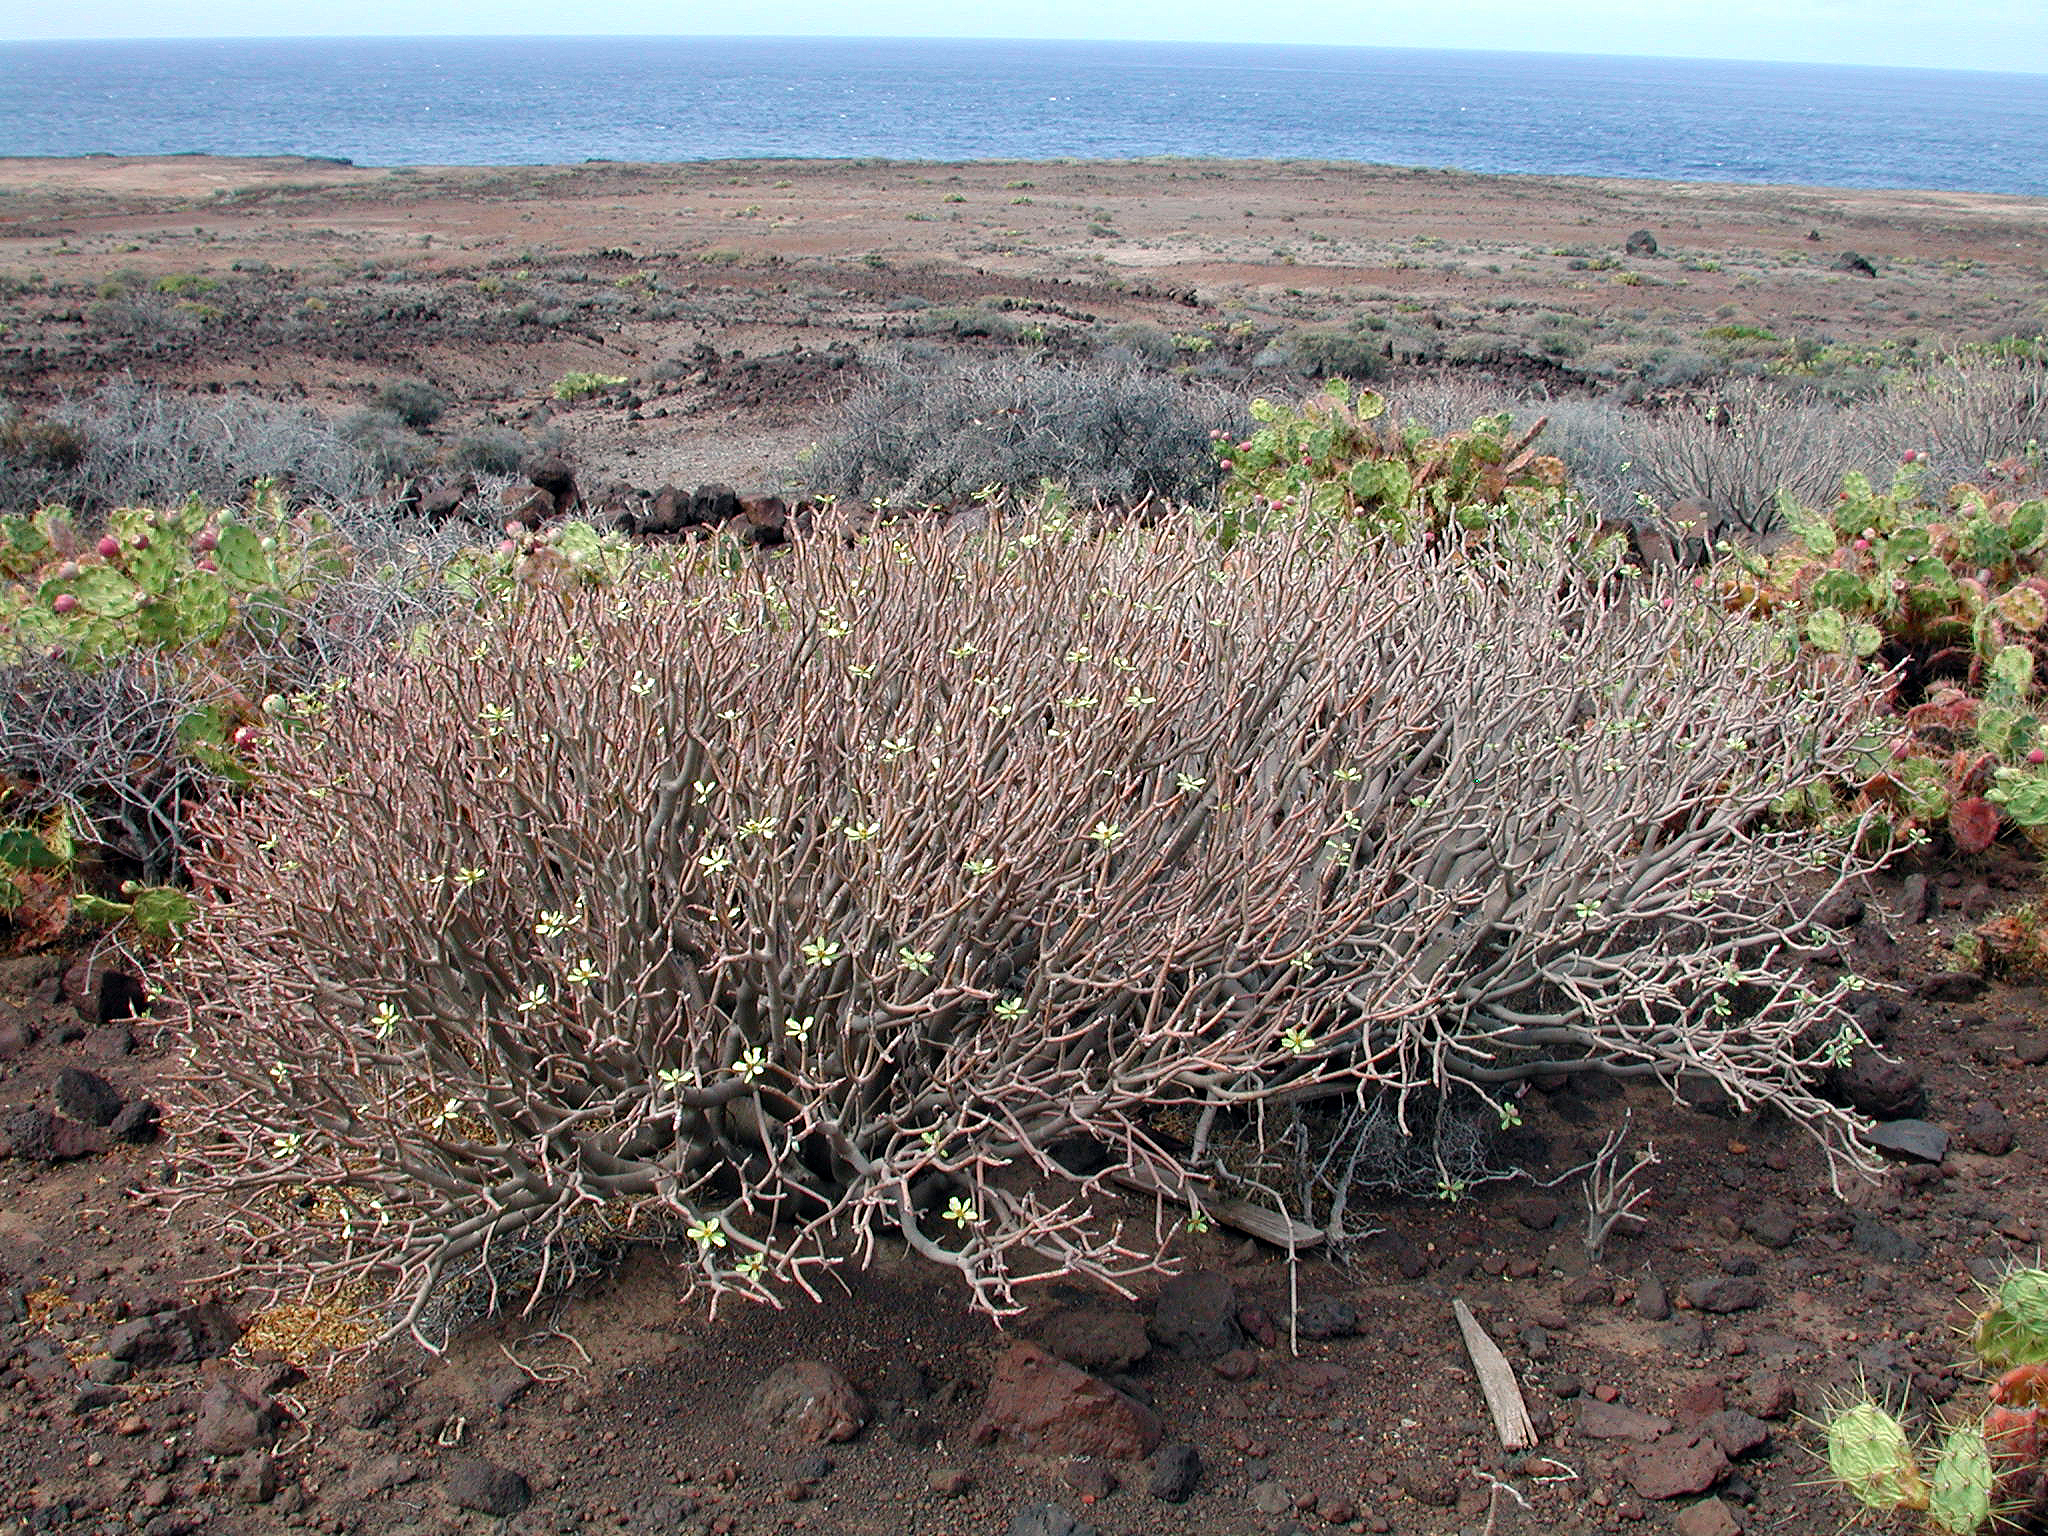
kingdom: Plantae
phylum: Tracheophyta
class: Magnoliopsida
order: Malpighiales
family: Euphorbiaceae
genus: Euphorbia
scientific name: Euphorbia balsamifera
